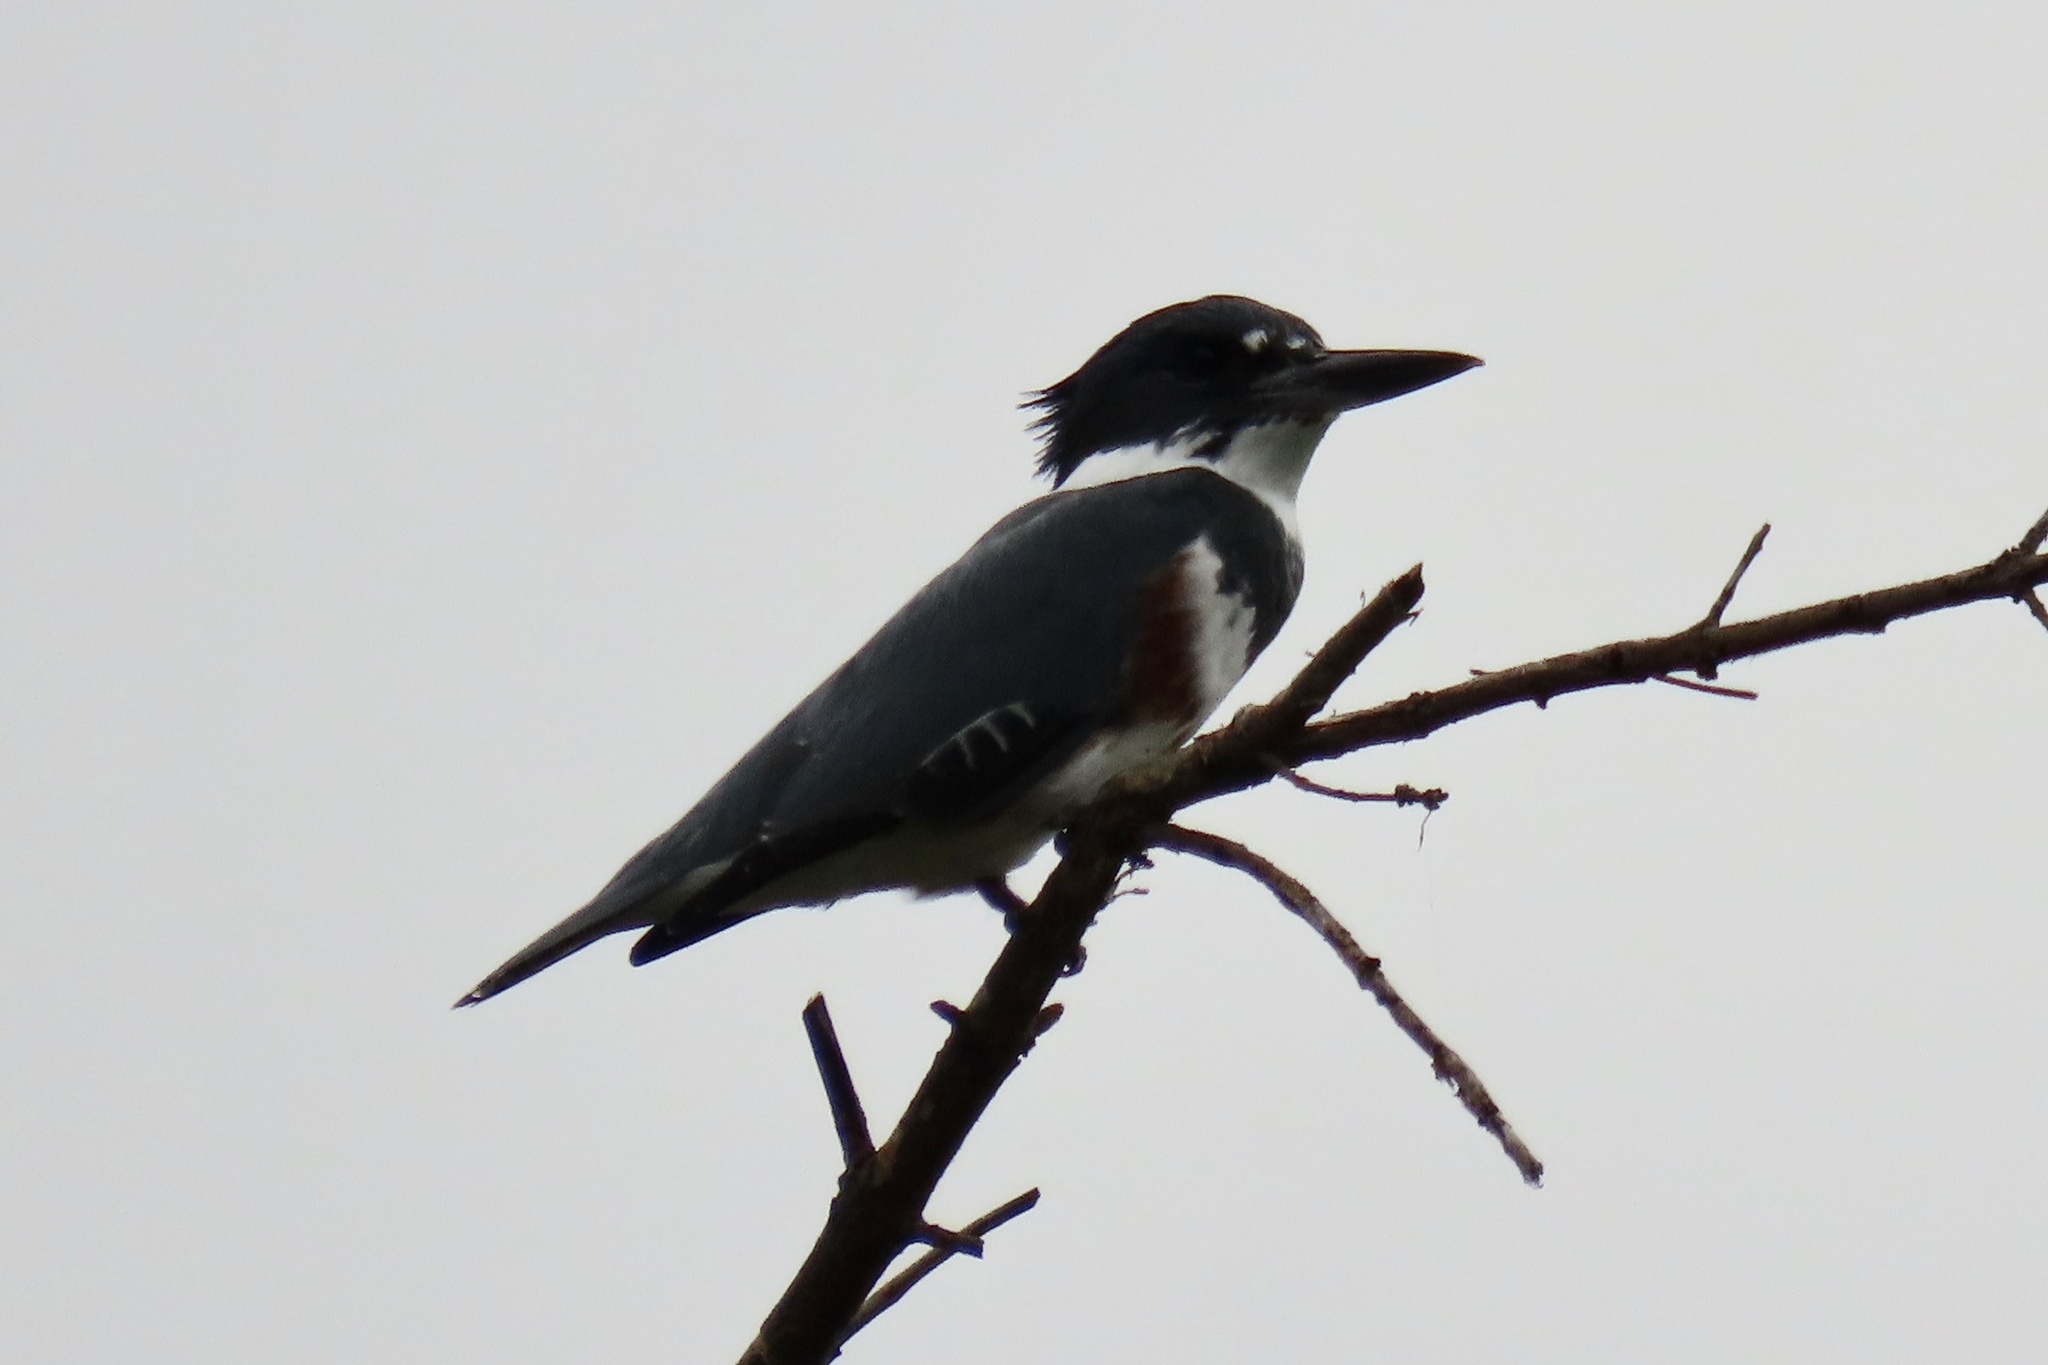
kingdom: Animalia
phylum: Chordata
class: Aves
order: Coraciiformes
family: Alcedinidae
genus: Megaceryle
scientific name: Megaceryle alcyon
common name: Belted kingfisher
